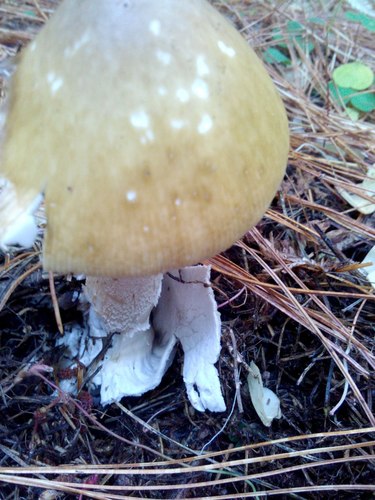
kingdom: Fungi
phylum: Basidiomycota
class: Agaricomycetes
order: Agaricales
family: Amanitaceae
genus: Amanita
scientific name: Amanita fulva
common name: Tawny grisette
